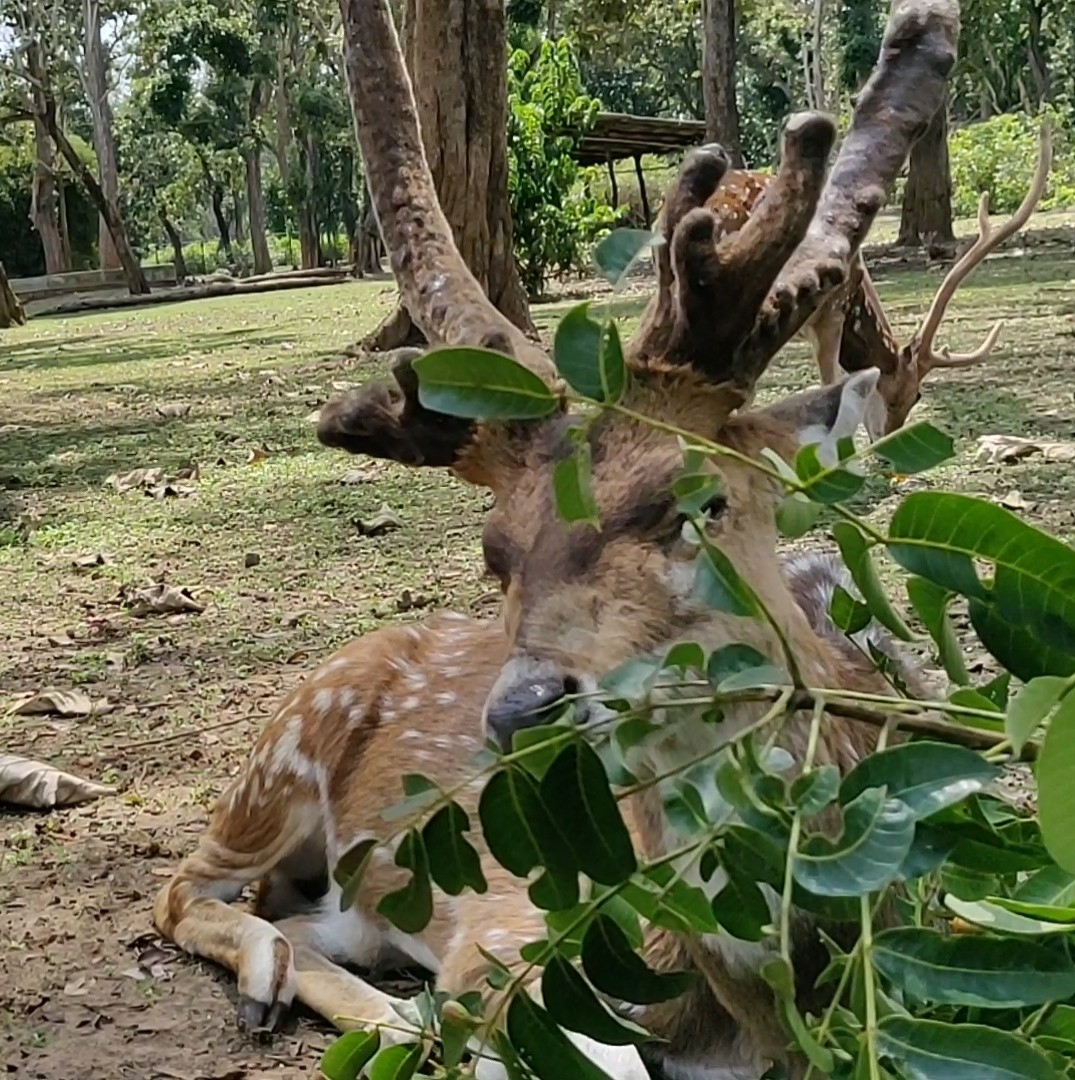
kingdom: Animalia
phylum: Chordata
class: Mammalia
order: Artiodactyla
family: Cervidae
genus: Axis
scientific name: Axis axis
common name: Chital
